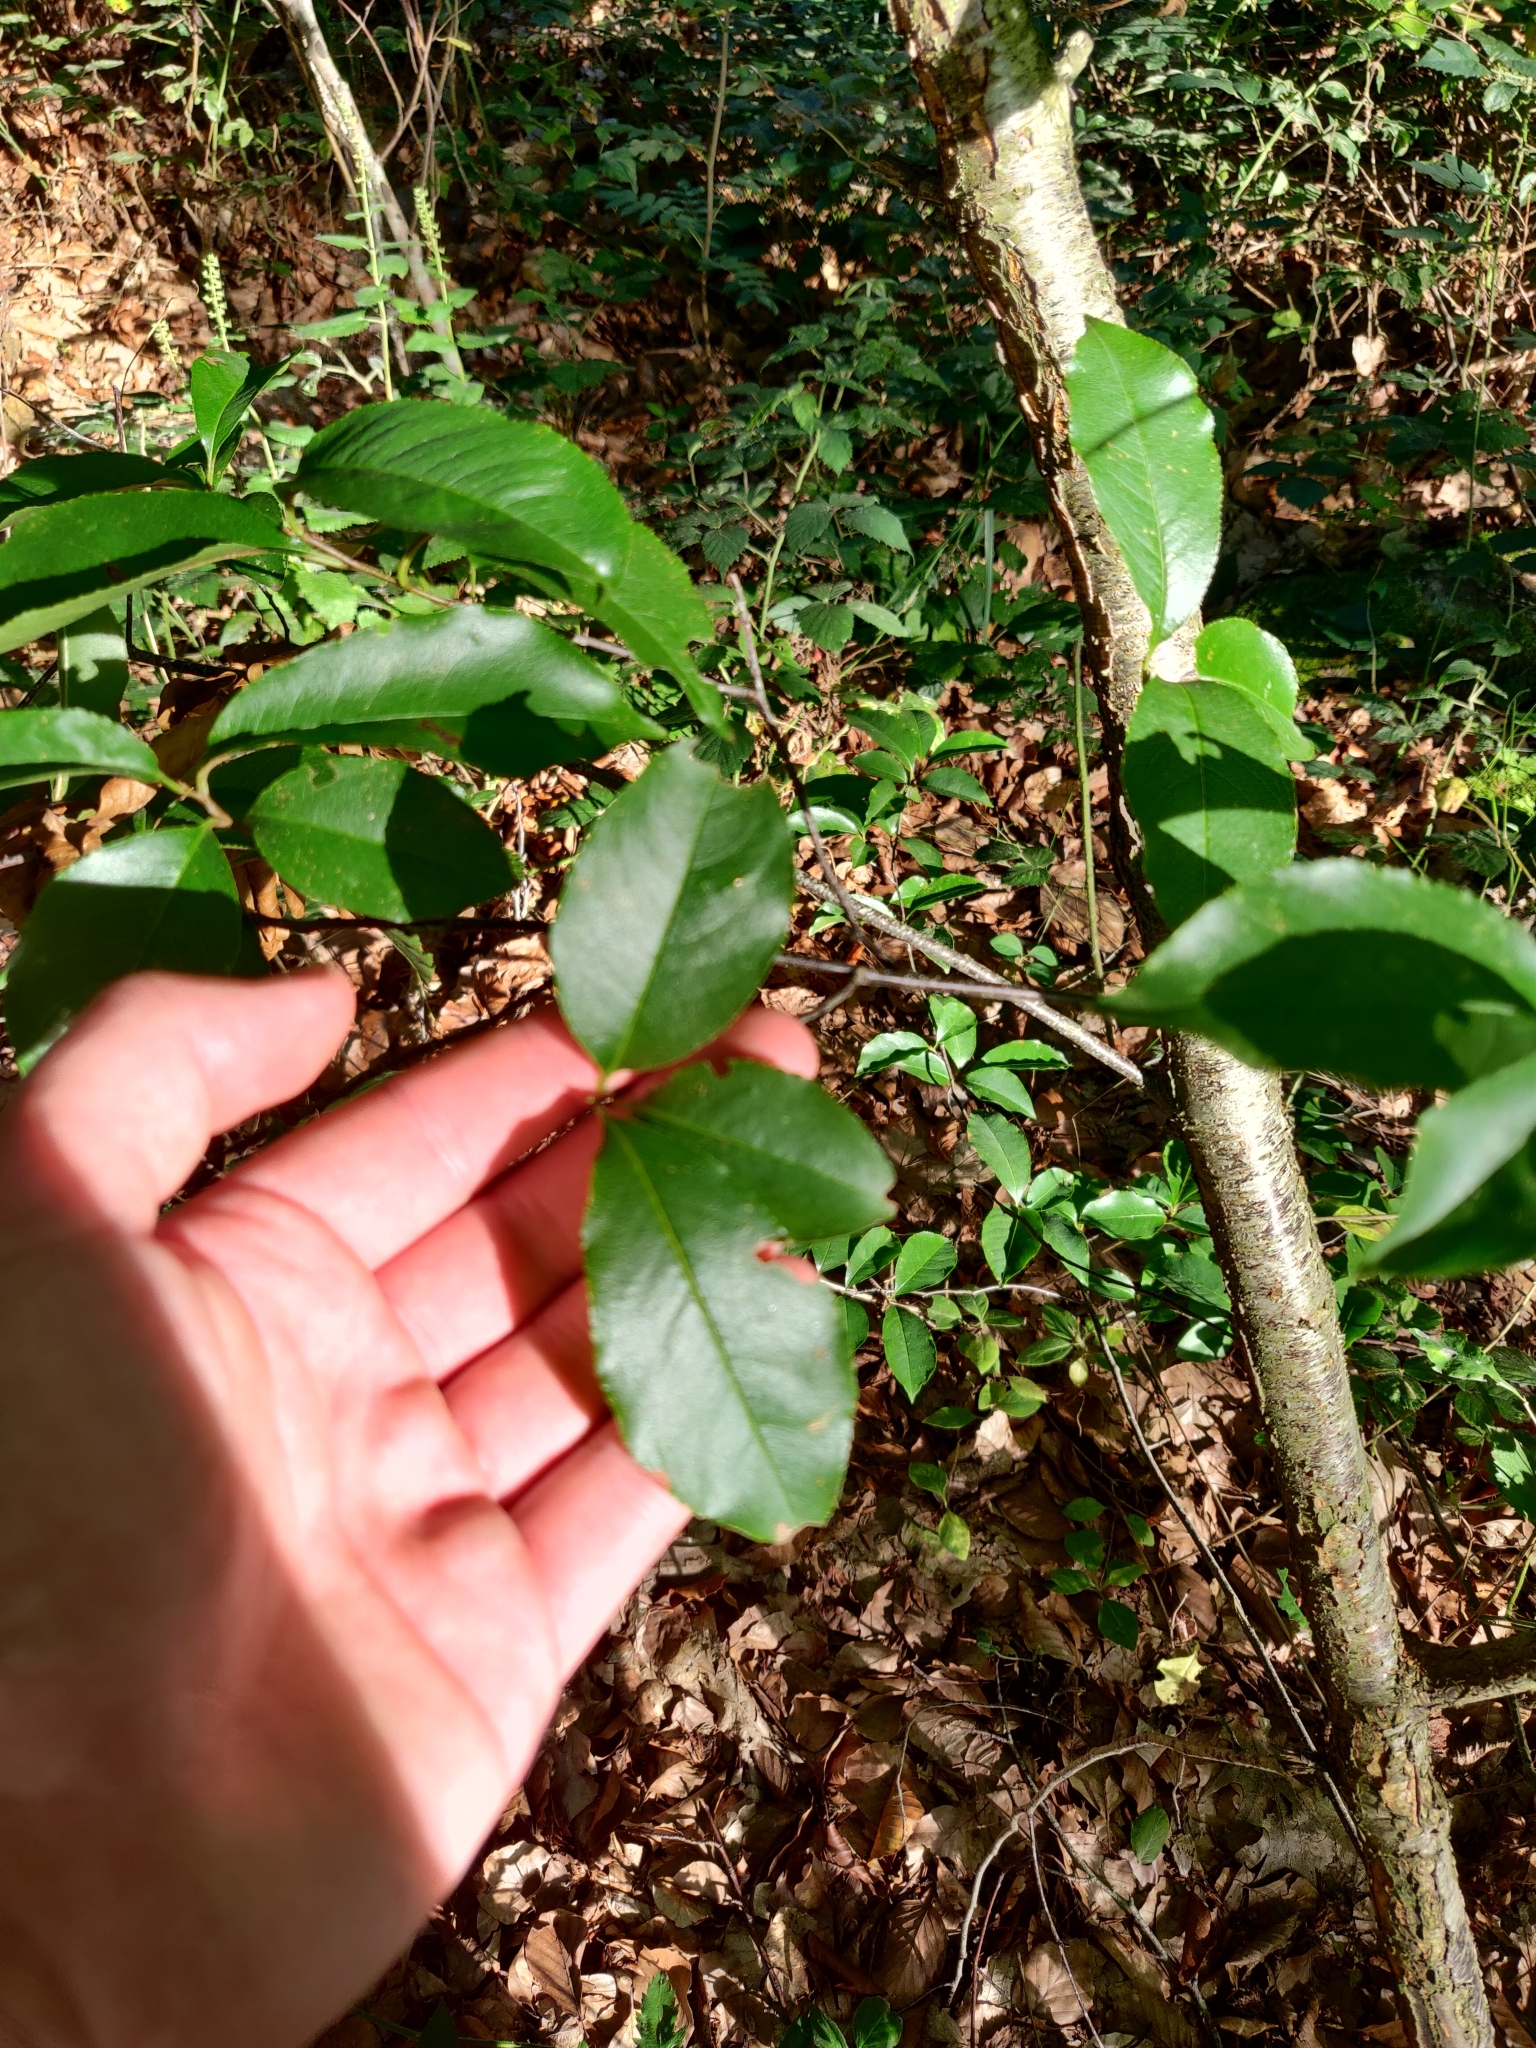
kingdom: Plantae
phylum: Tracheophyta
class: Magnoliopsida
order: Rosales
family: Rosaceae
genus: Prunus
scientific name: Prunus serotina
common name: Black cherry
